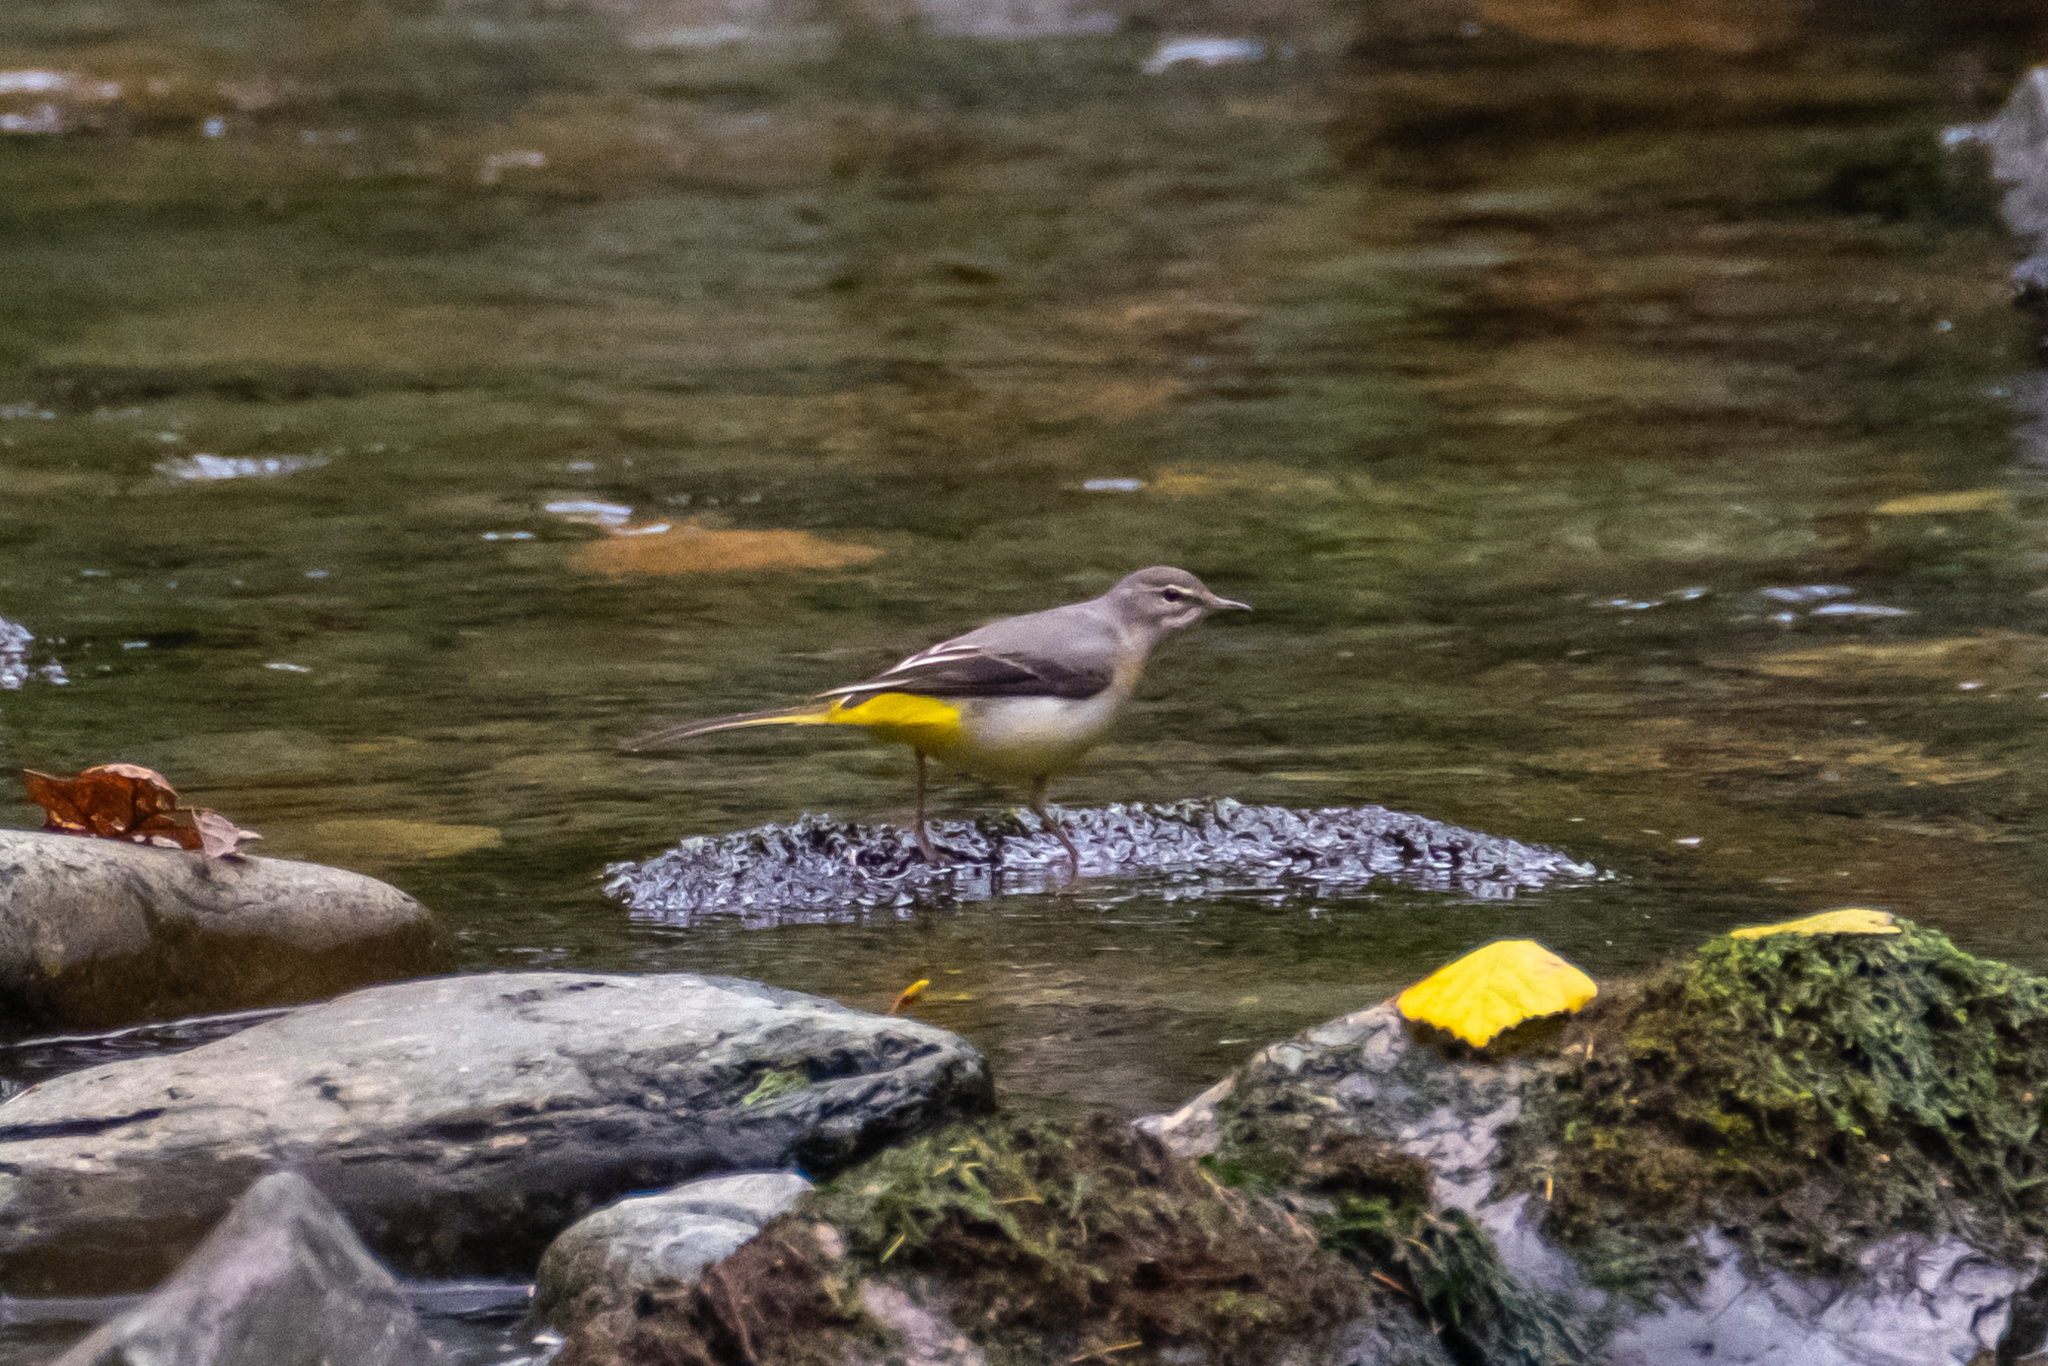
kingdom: Animalia
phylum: Chordata
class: Aves
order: Passeriformes
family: Motacillidae
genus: Motacilla
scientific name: Motacilla cinerea
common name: Grey wagtail
